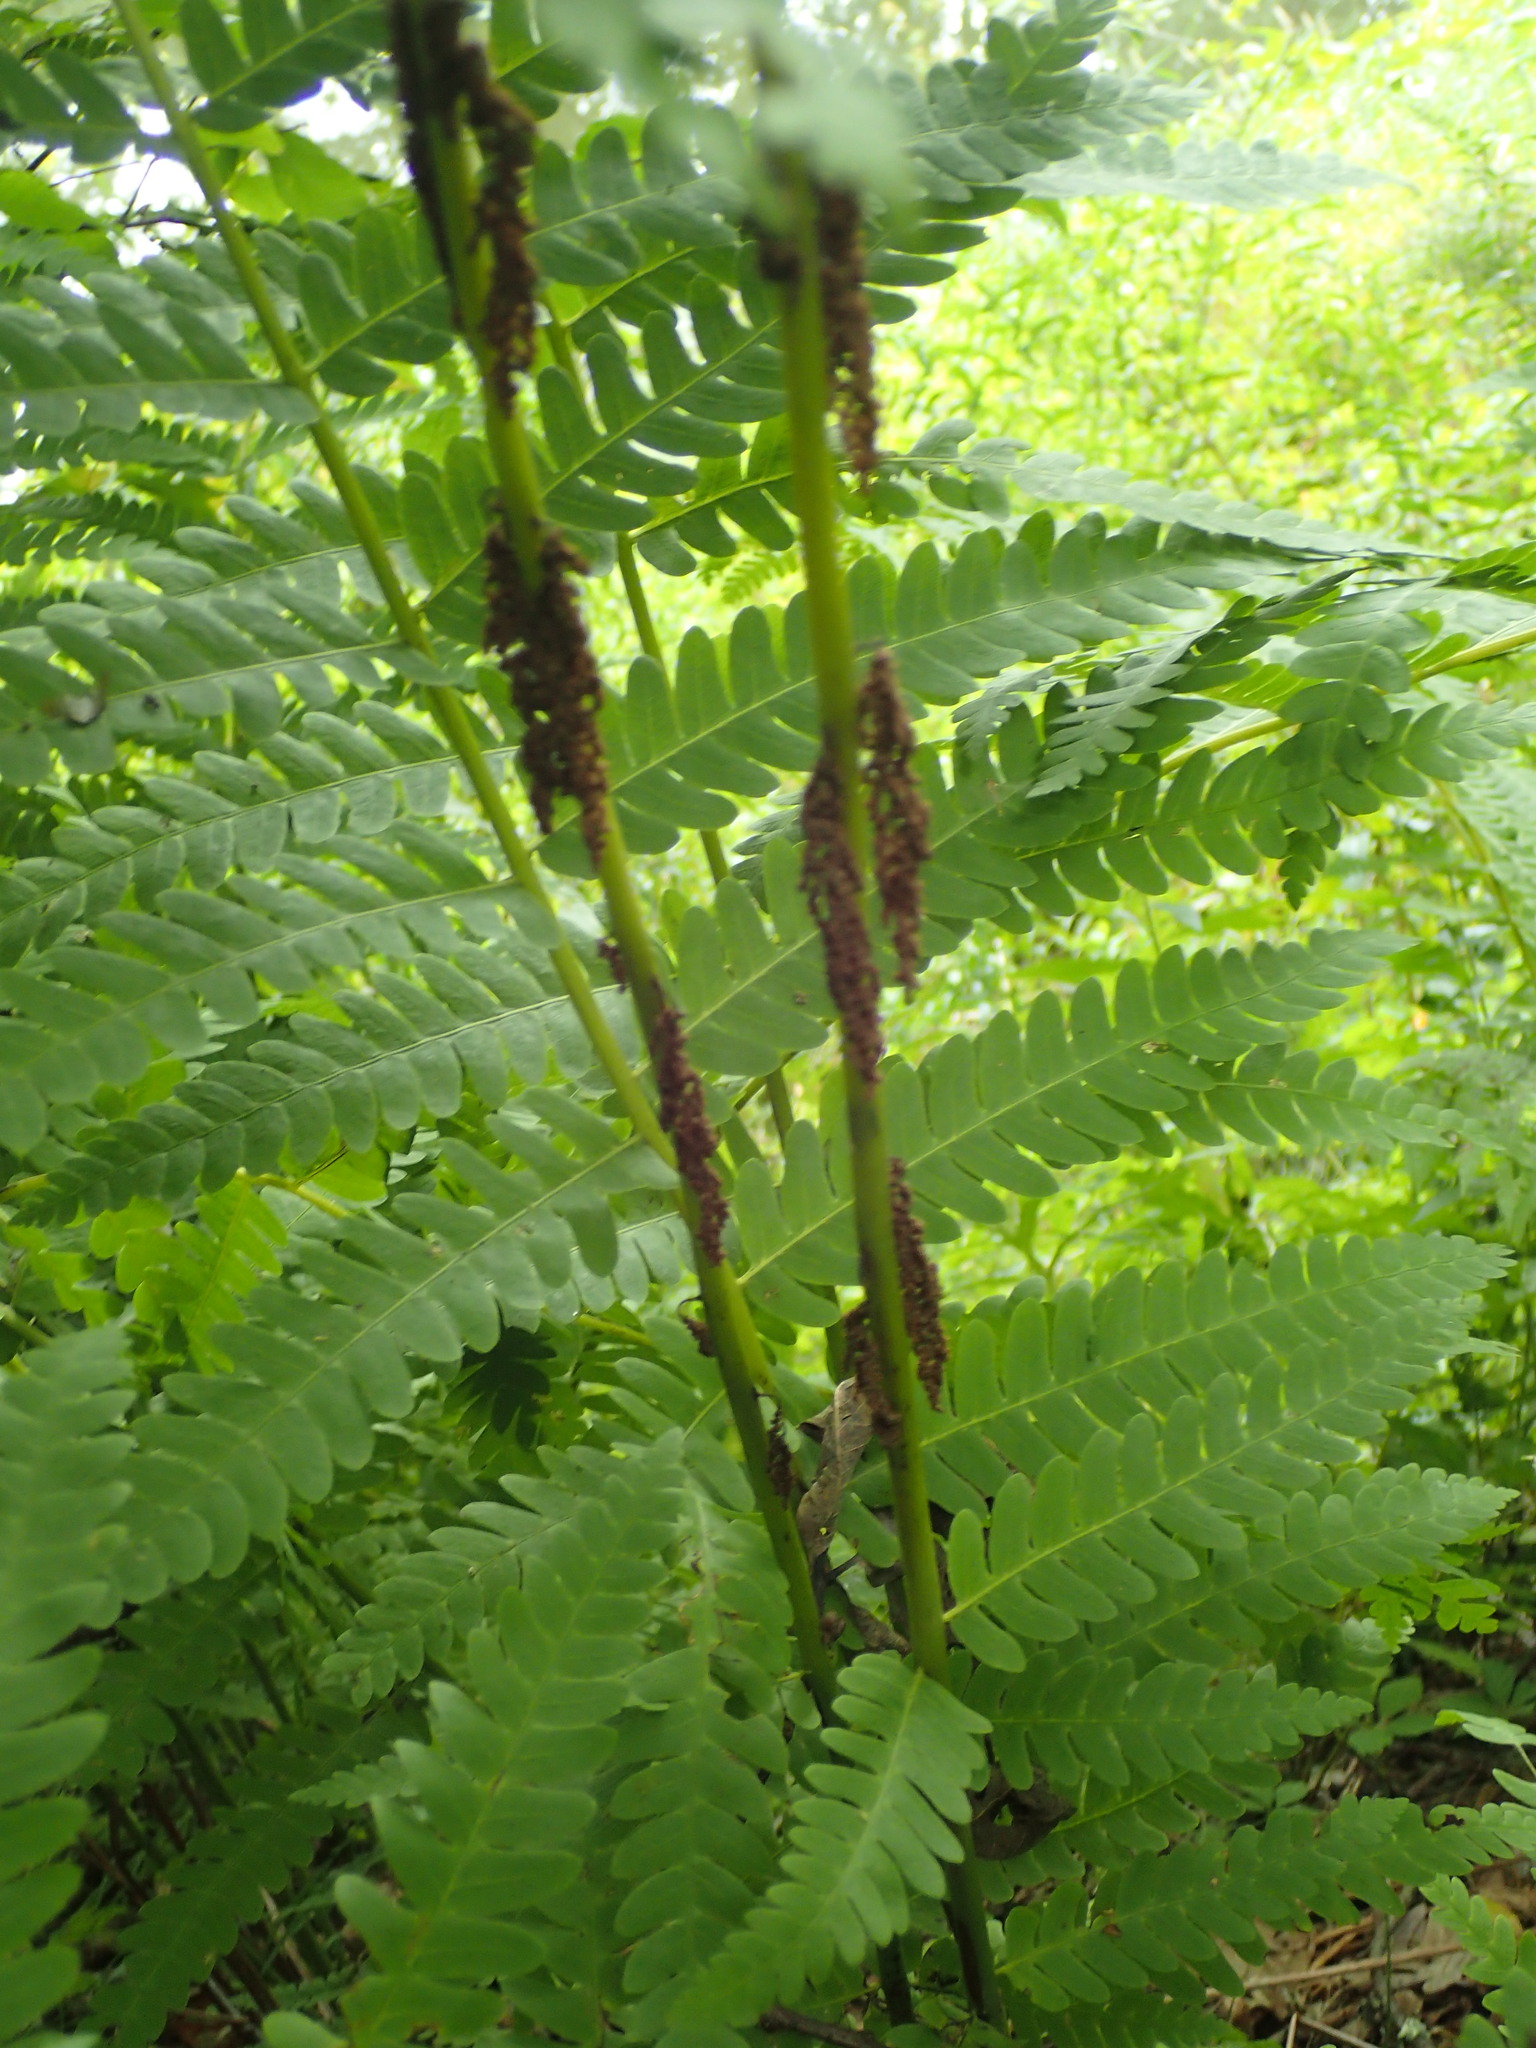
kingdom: Plantae
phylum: Tracheophyta
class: Polypodiopsida
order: Osmundales
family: Osmundaceae
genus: Claytosmunda
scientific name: Claytosmunda claytoniana
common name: Clayton's fern
